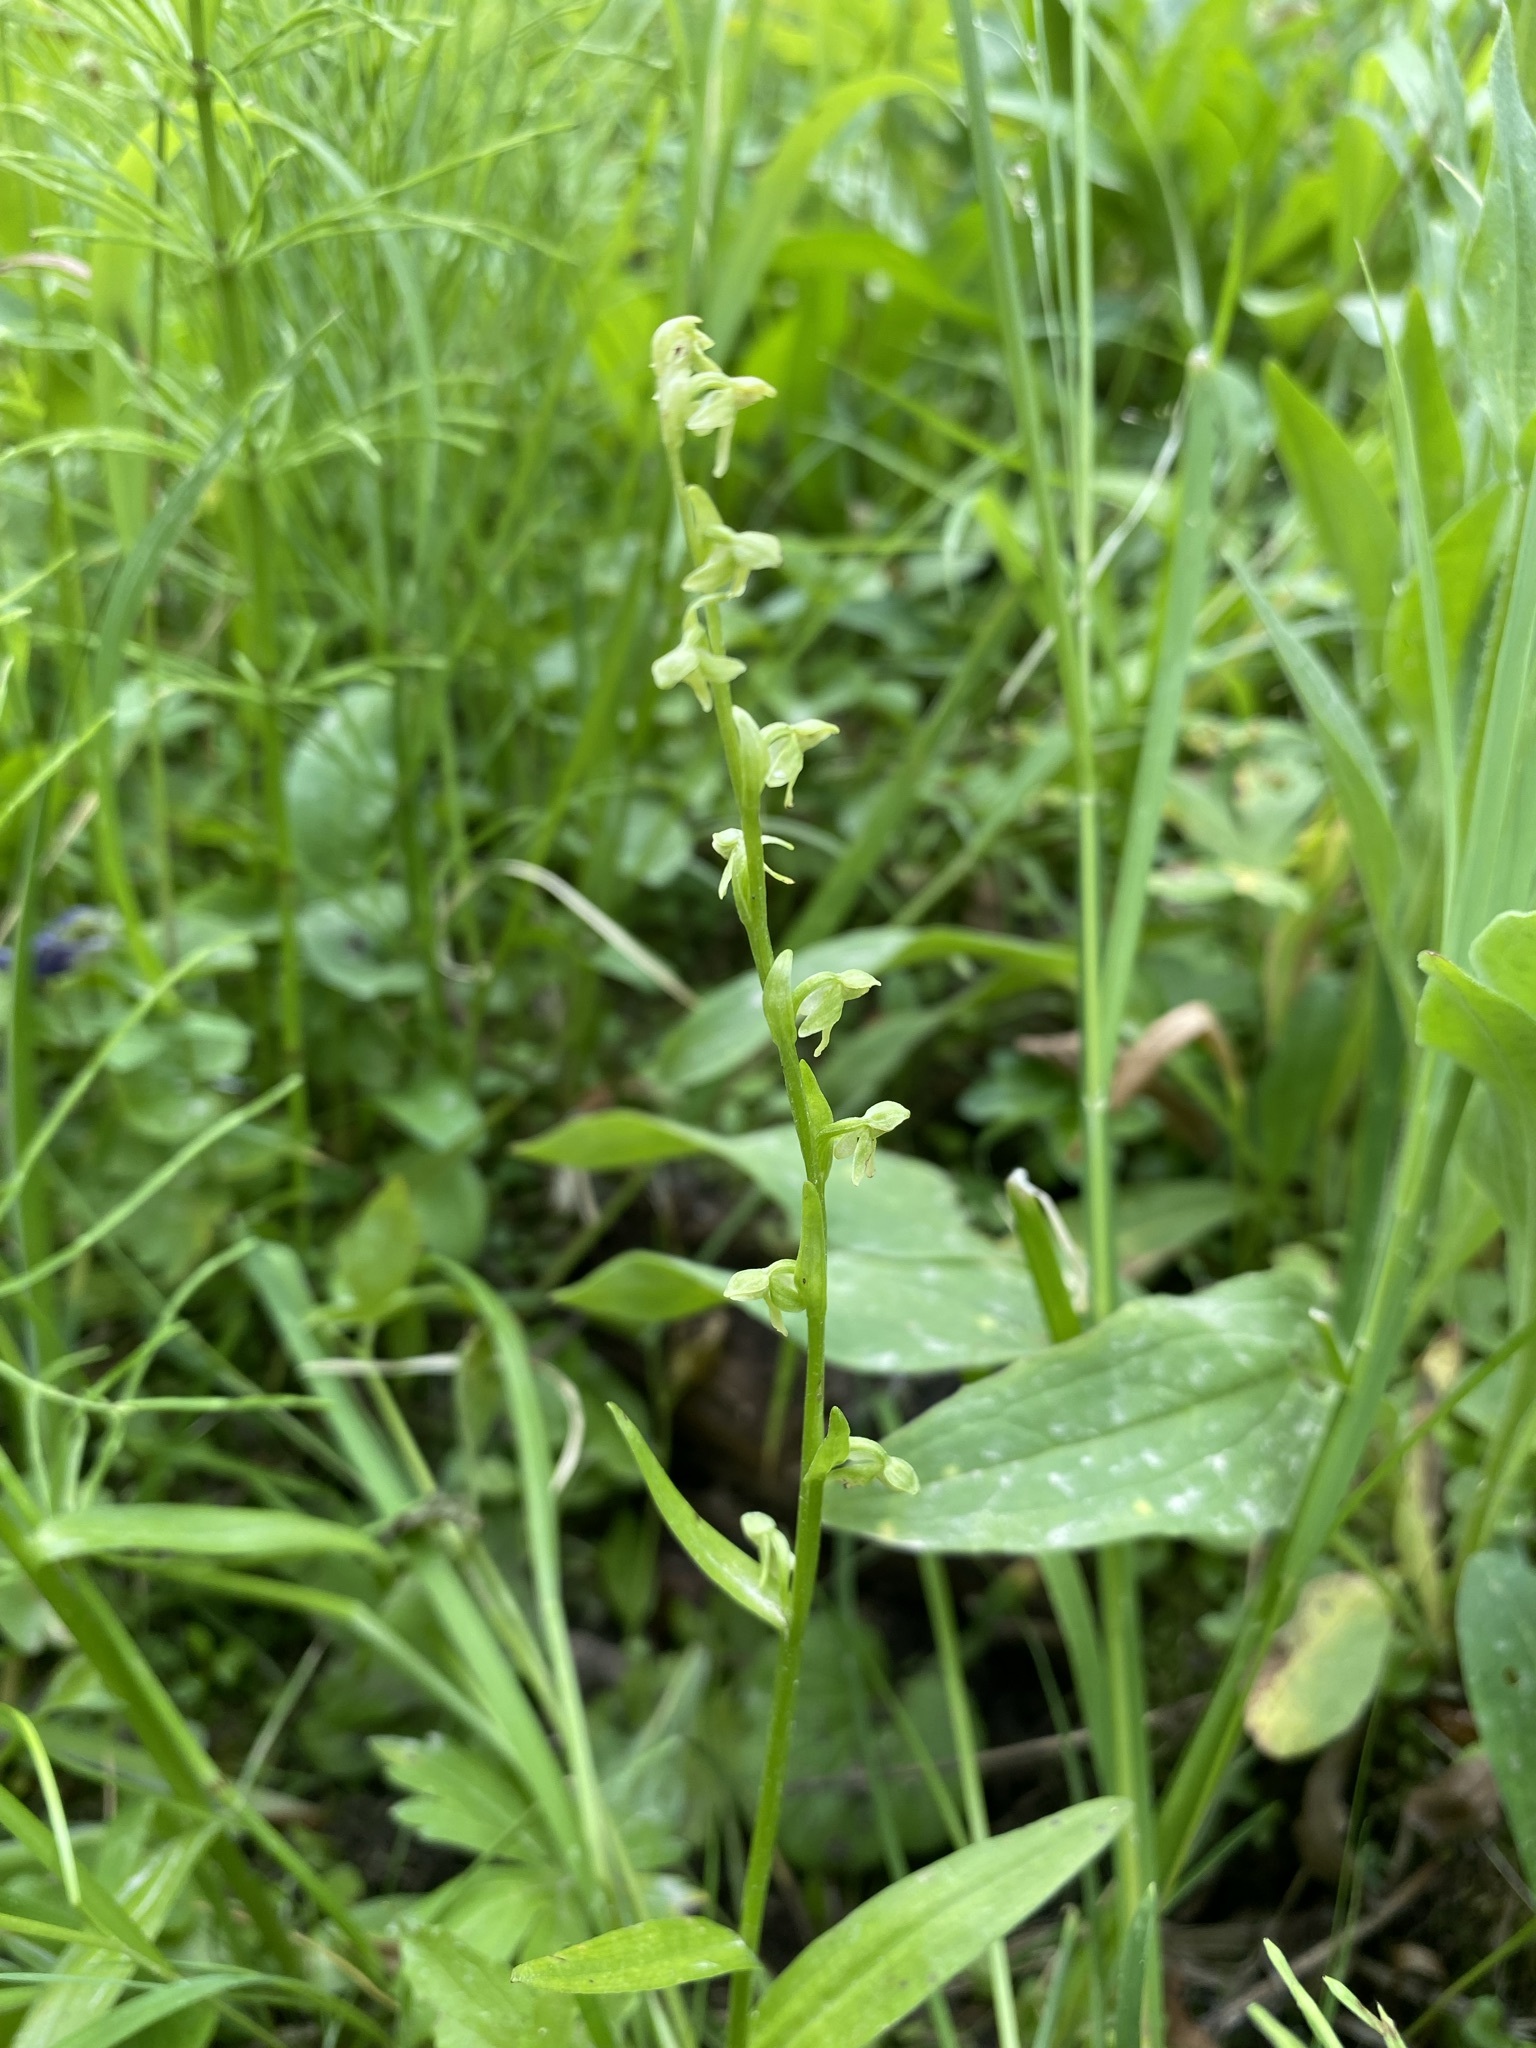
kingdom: Plantae
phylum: Tracheophyta
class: Liliopsida
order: Asparagales
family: Orchidaceae
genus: Platanthera
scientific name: Platanthera stricta
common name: Slender bog orchid
